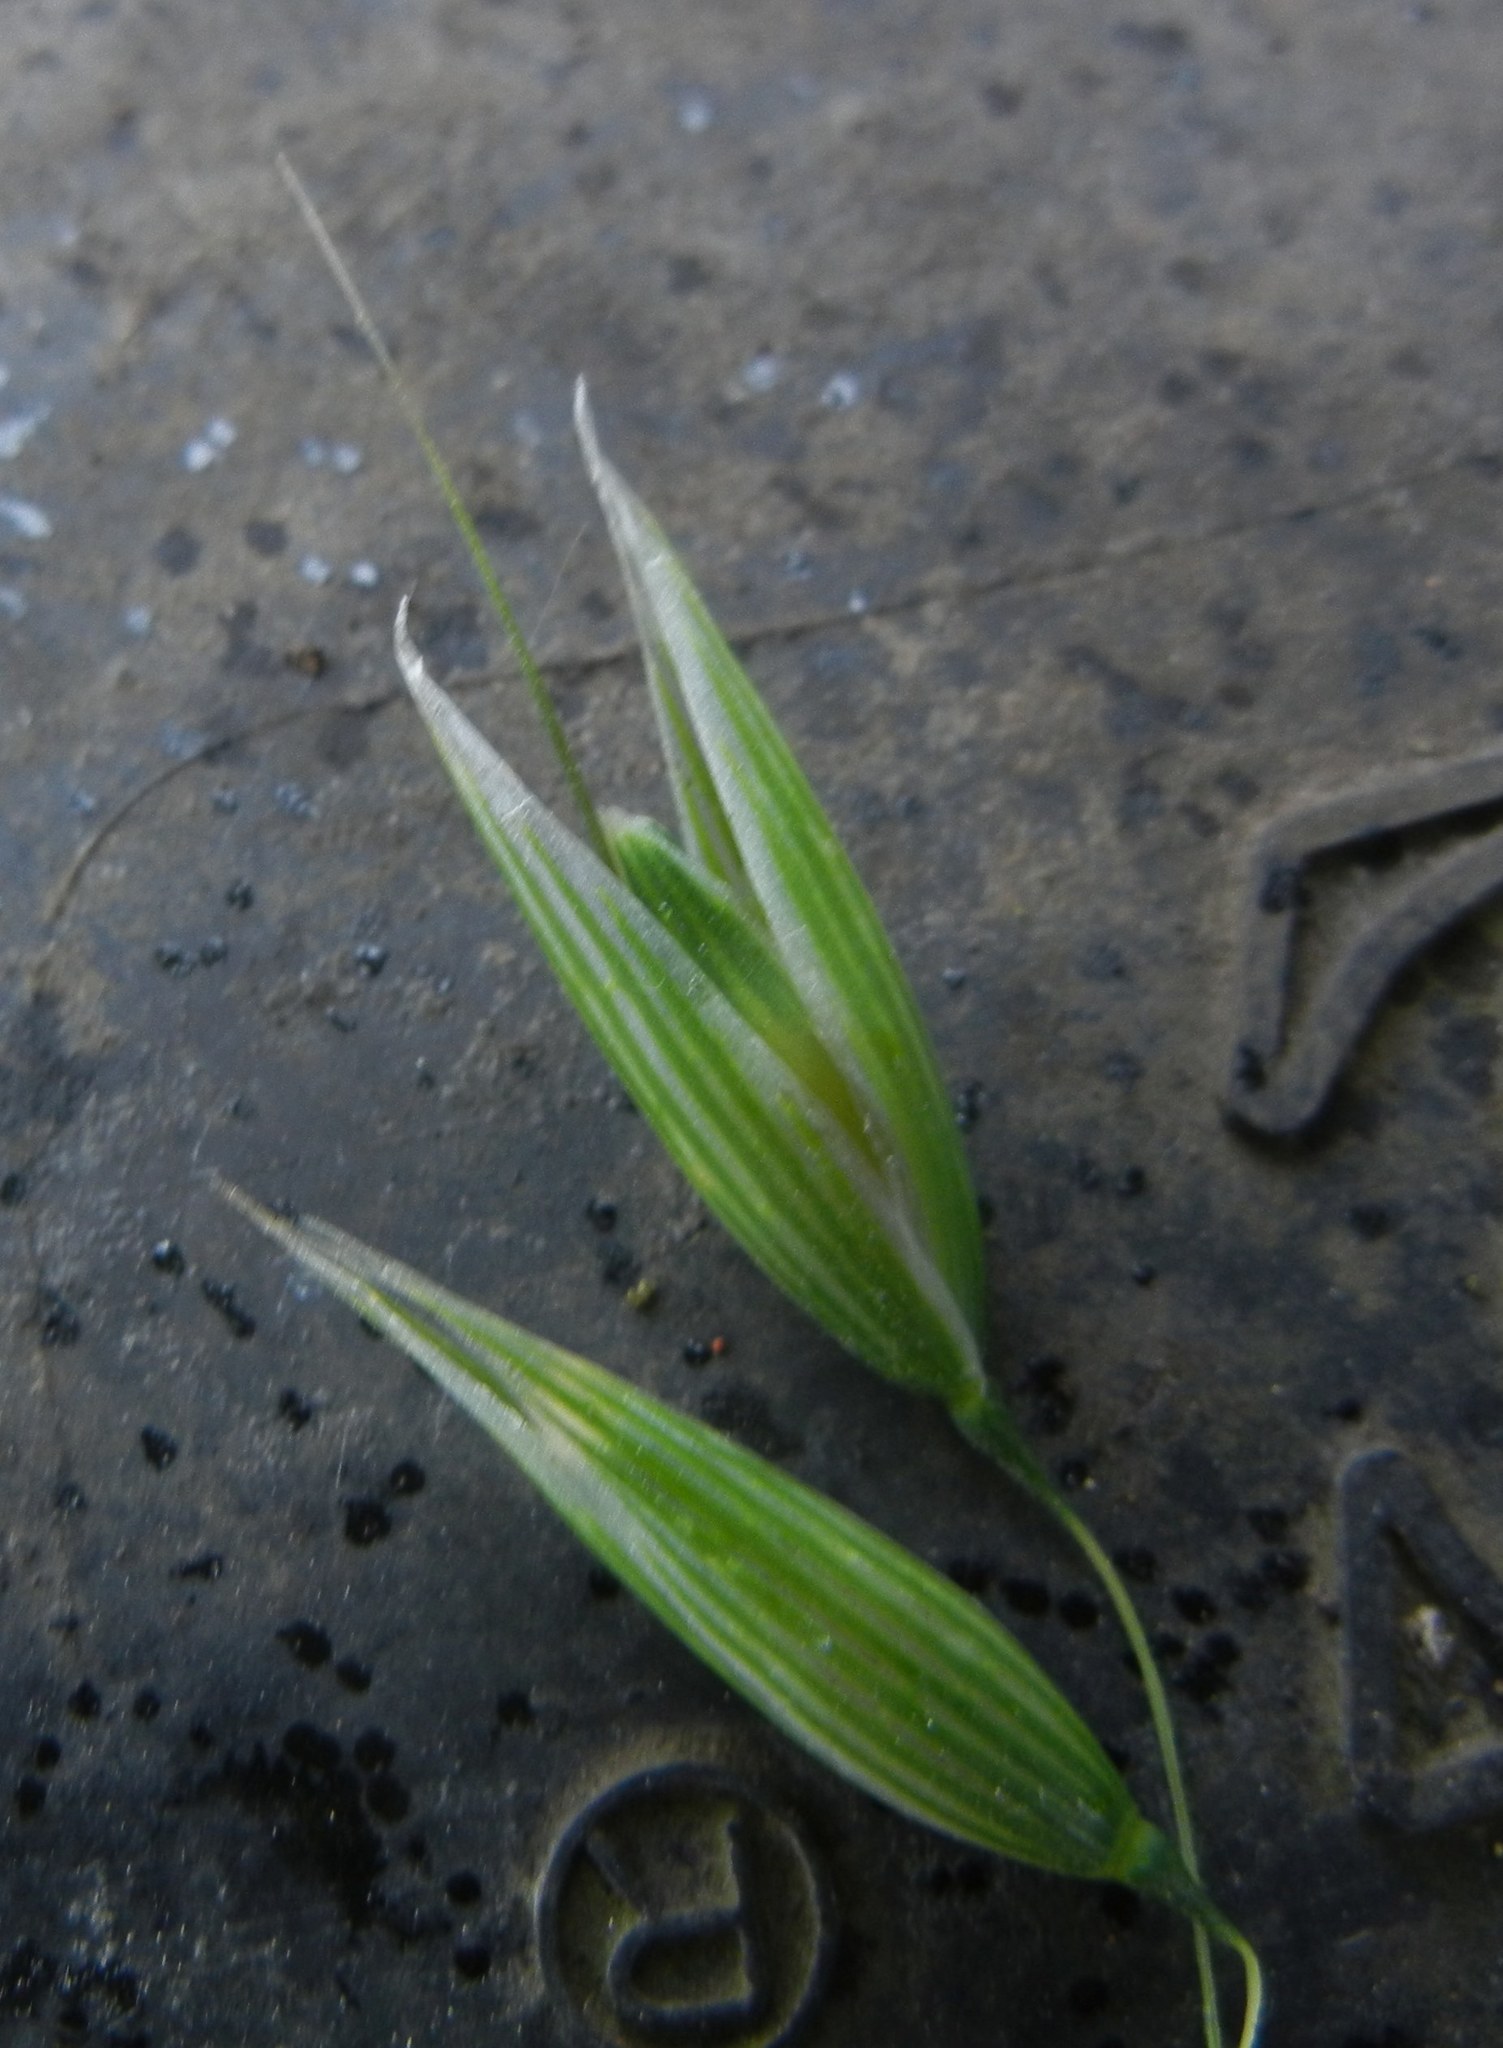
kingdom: Plantae
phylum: Tracheophyta
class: Liliopsida
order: Poales
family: Poaceae
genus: Avena
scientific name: Avena sativa
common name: Oat
